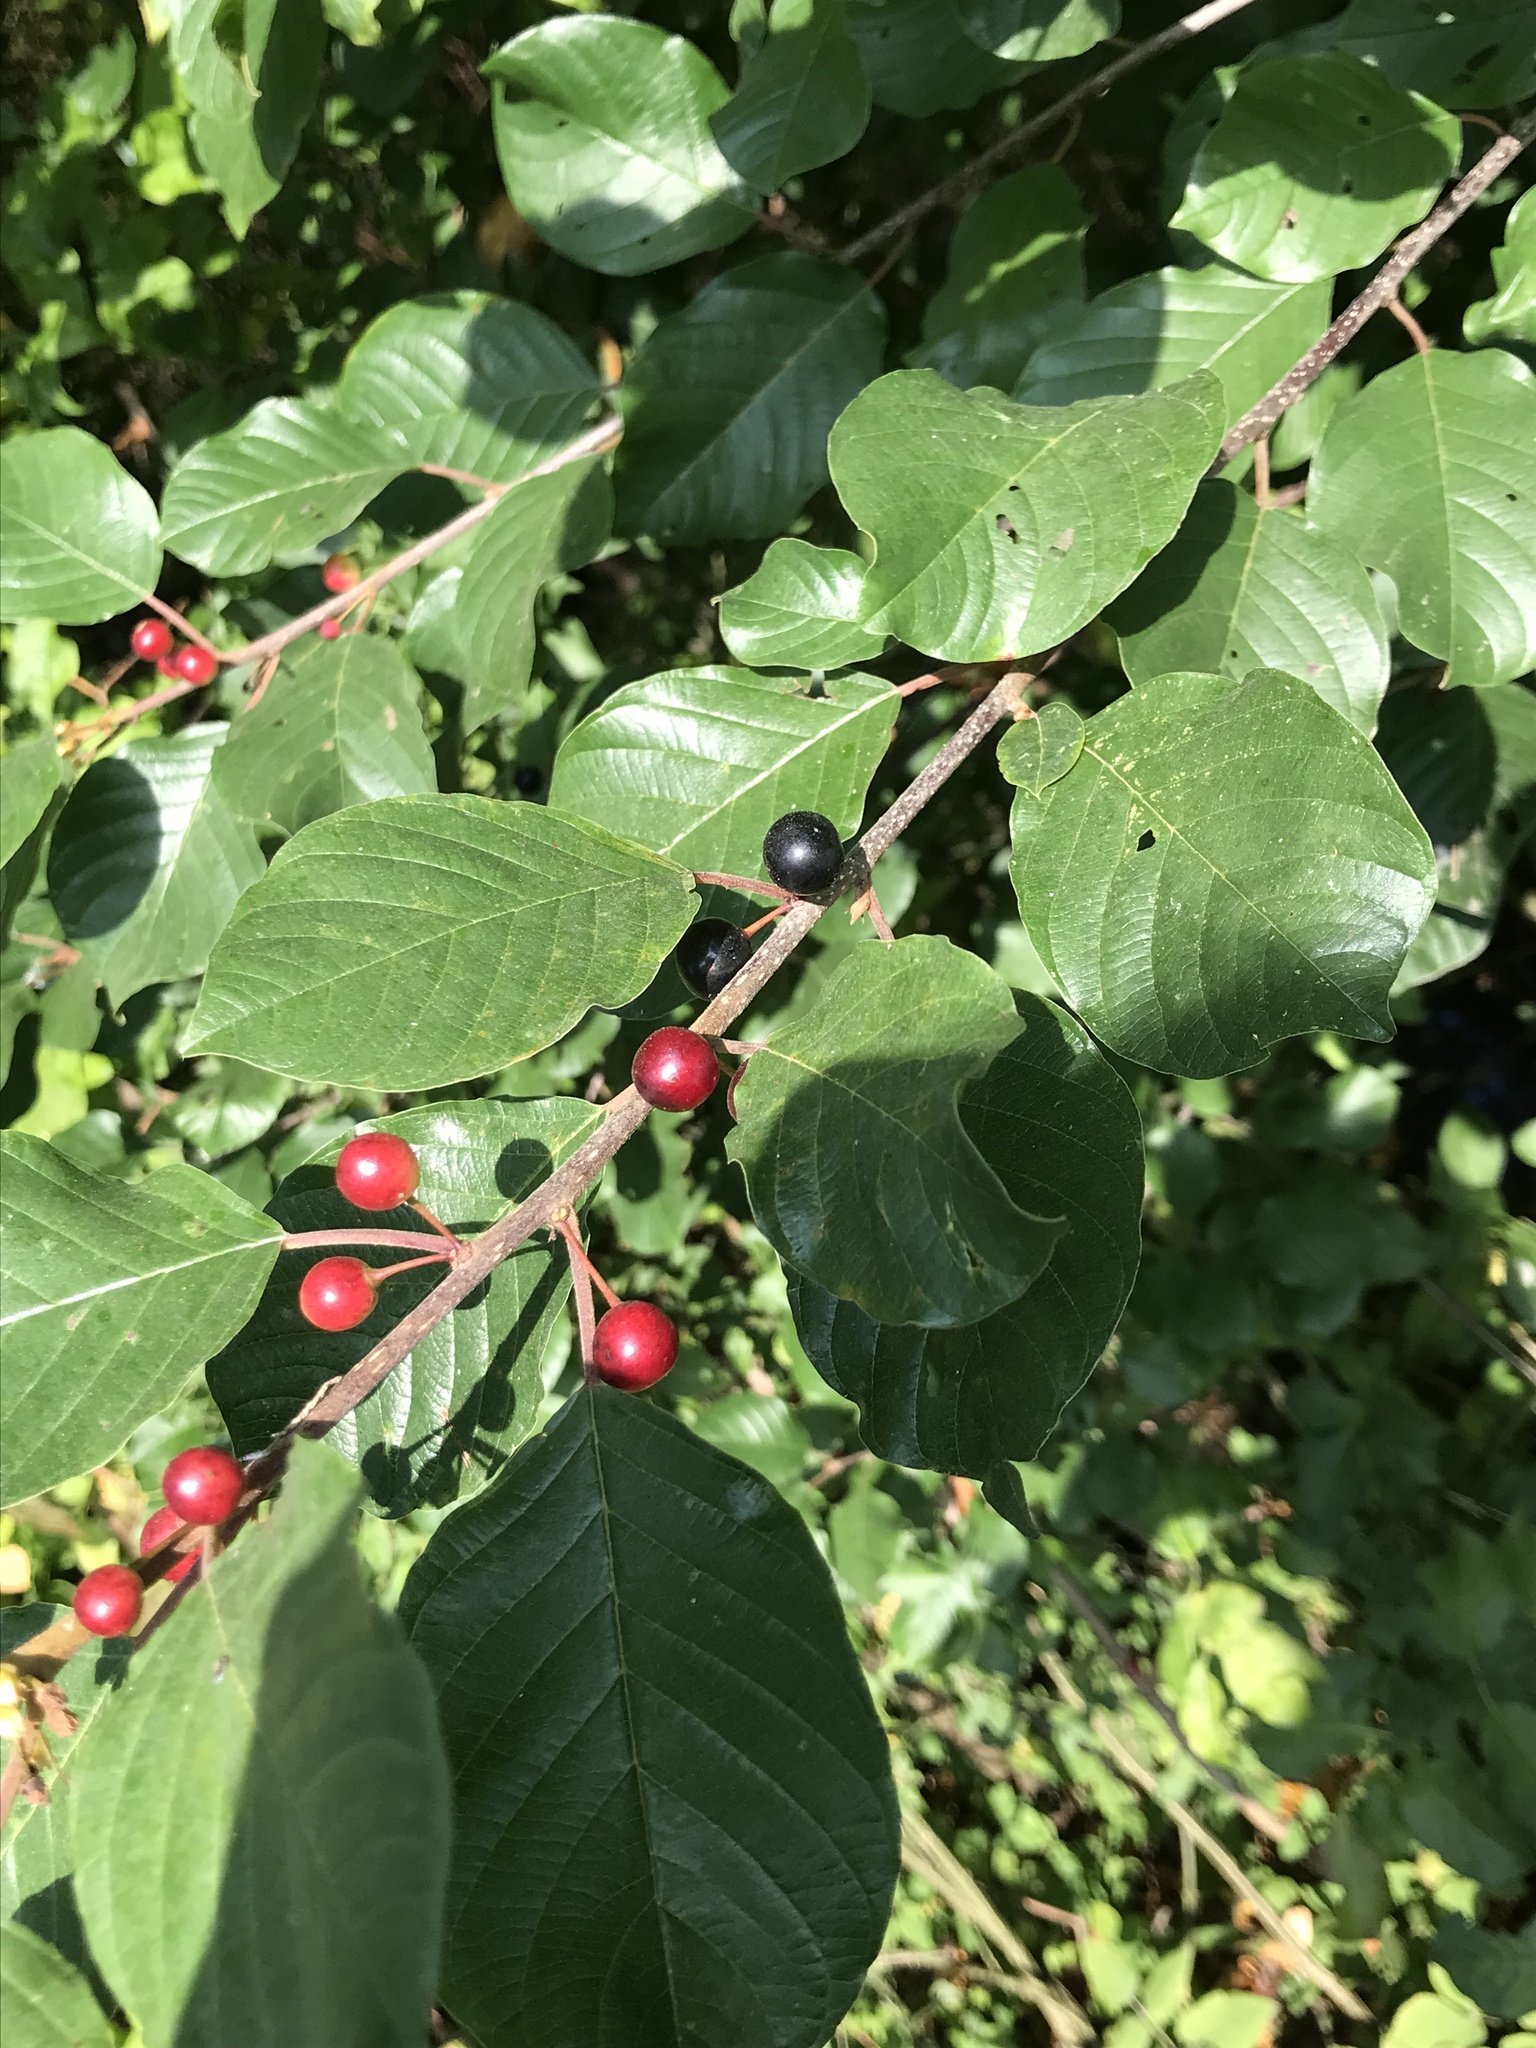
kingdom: Plantae
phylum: Tracheophyta
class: Magnoliopsida
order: Rosales
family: Rhamnaceae
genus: Frangula
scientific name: Frangula alnus
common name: Alder buckthorn
